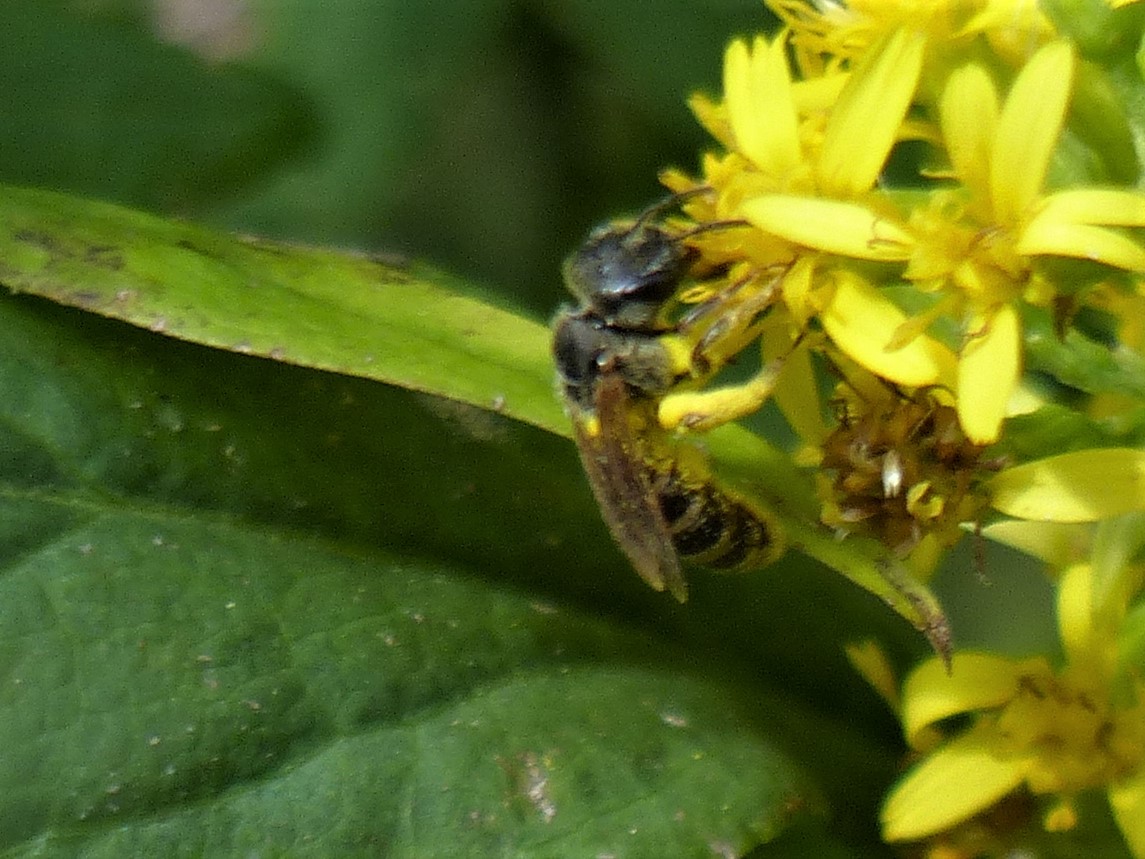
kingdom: Animalia
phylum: Arthropoda
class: Insecta
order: Hymenoptera
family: Halictidae
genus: Halictus
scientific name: Halictus ligatus
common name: Ligated furrow bee
